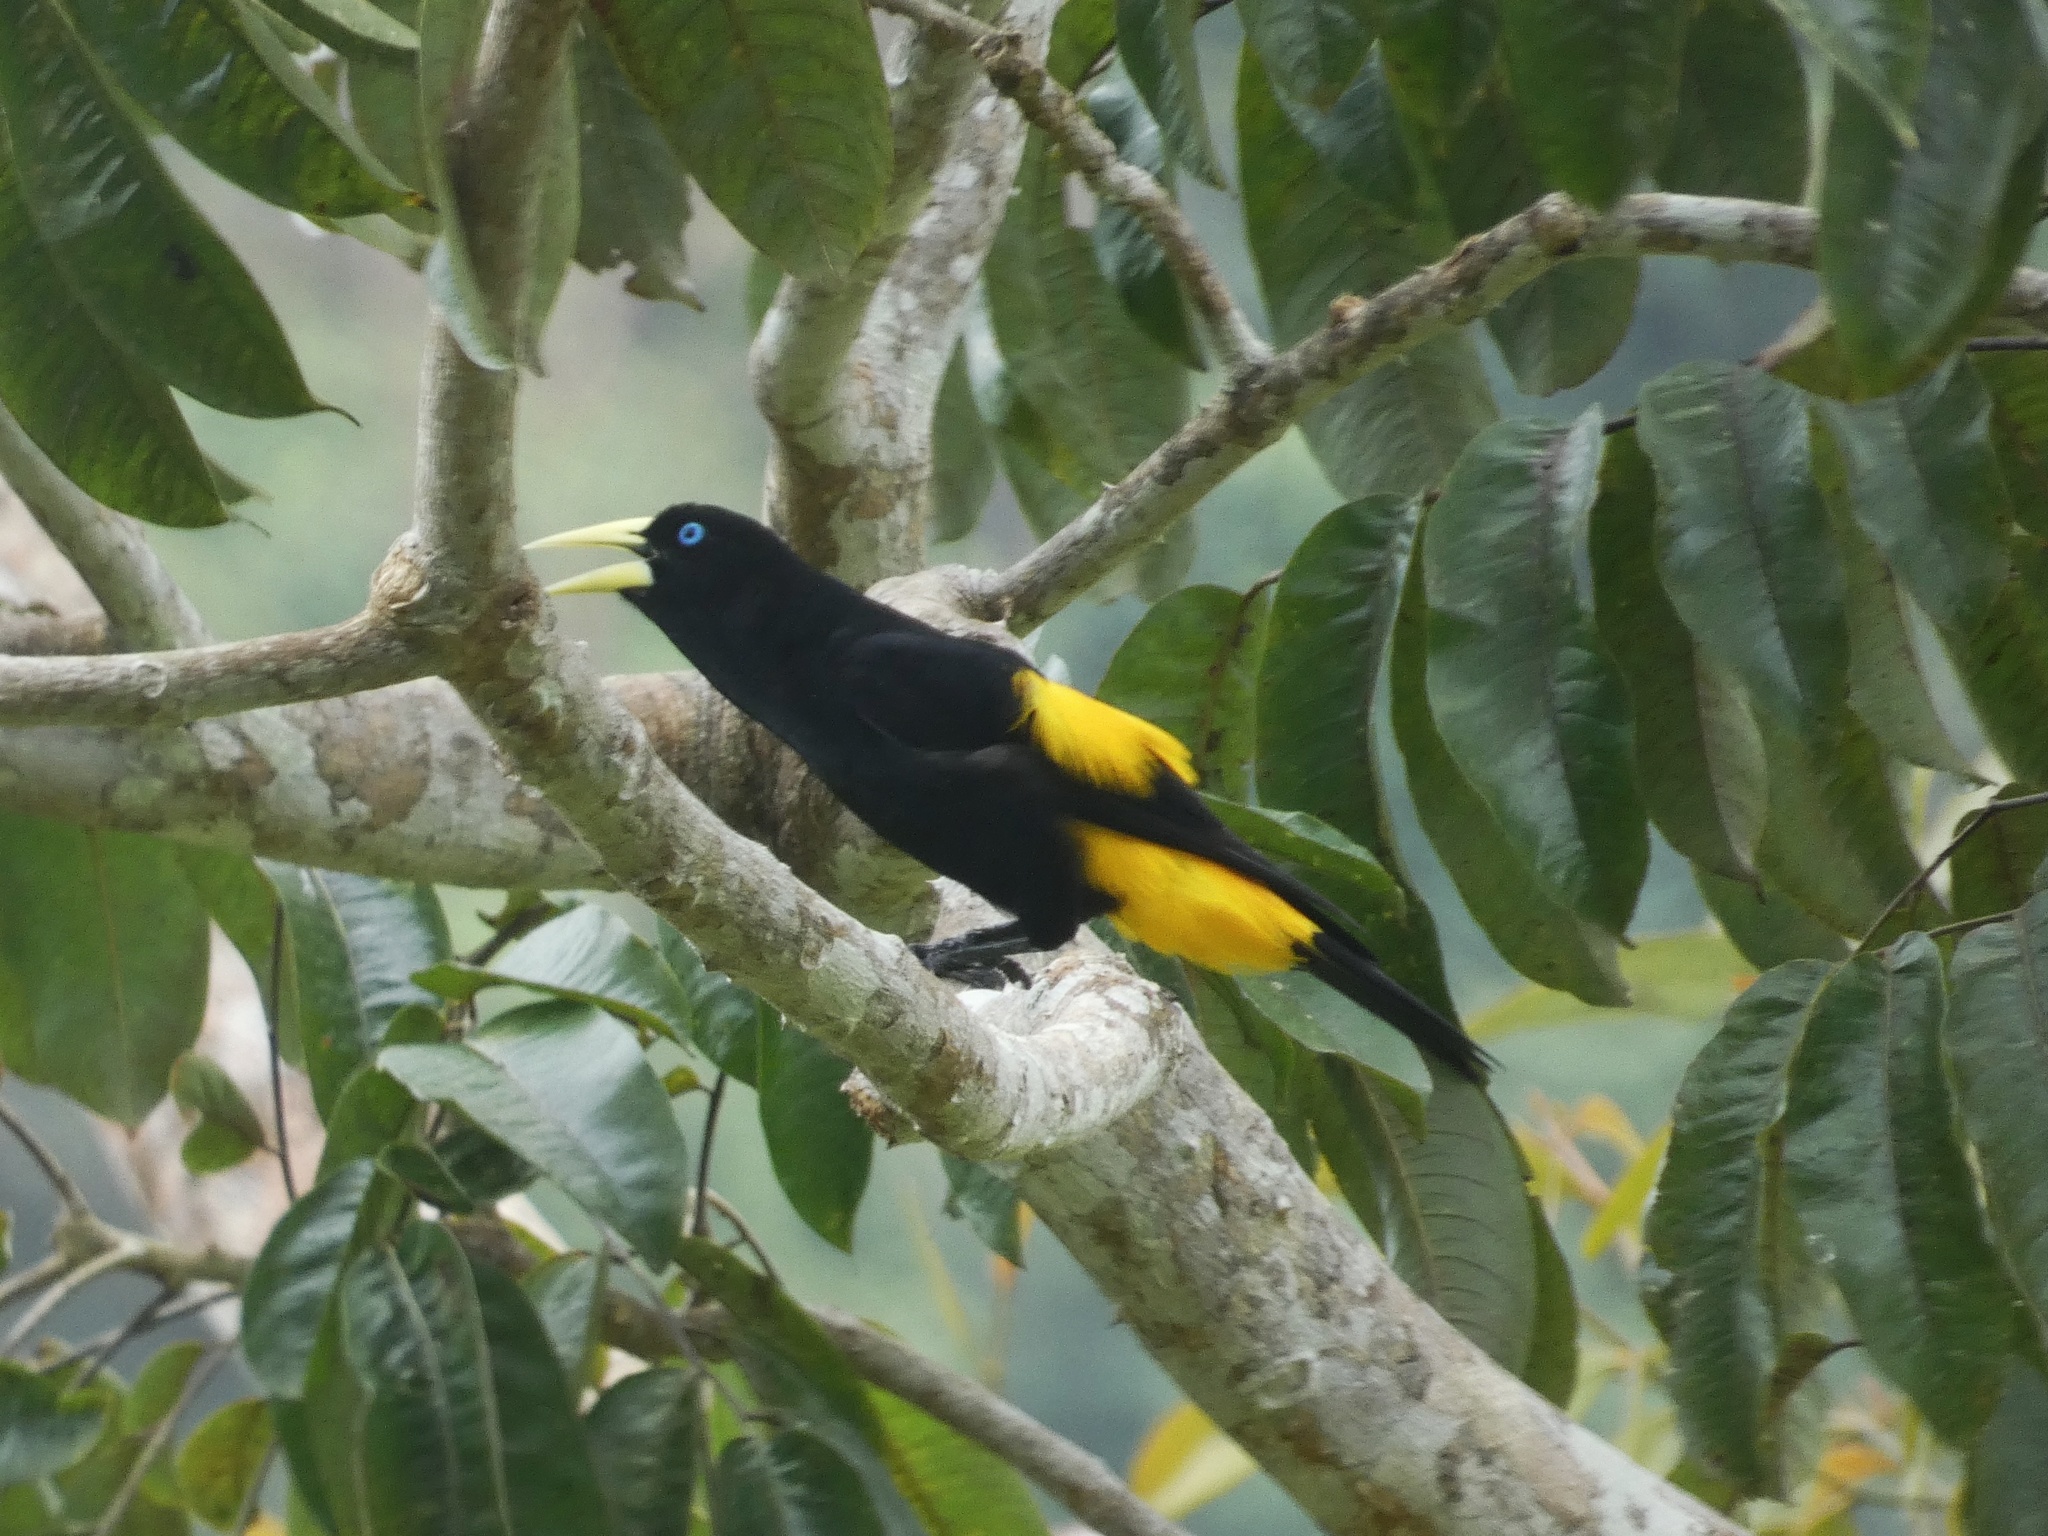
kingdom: Animalia
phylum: Chordata
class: Aves
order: Passeriformes
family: Icteridae
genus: Cacicus
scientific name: Cacicus cela
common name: Yellow-rumped cacique
